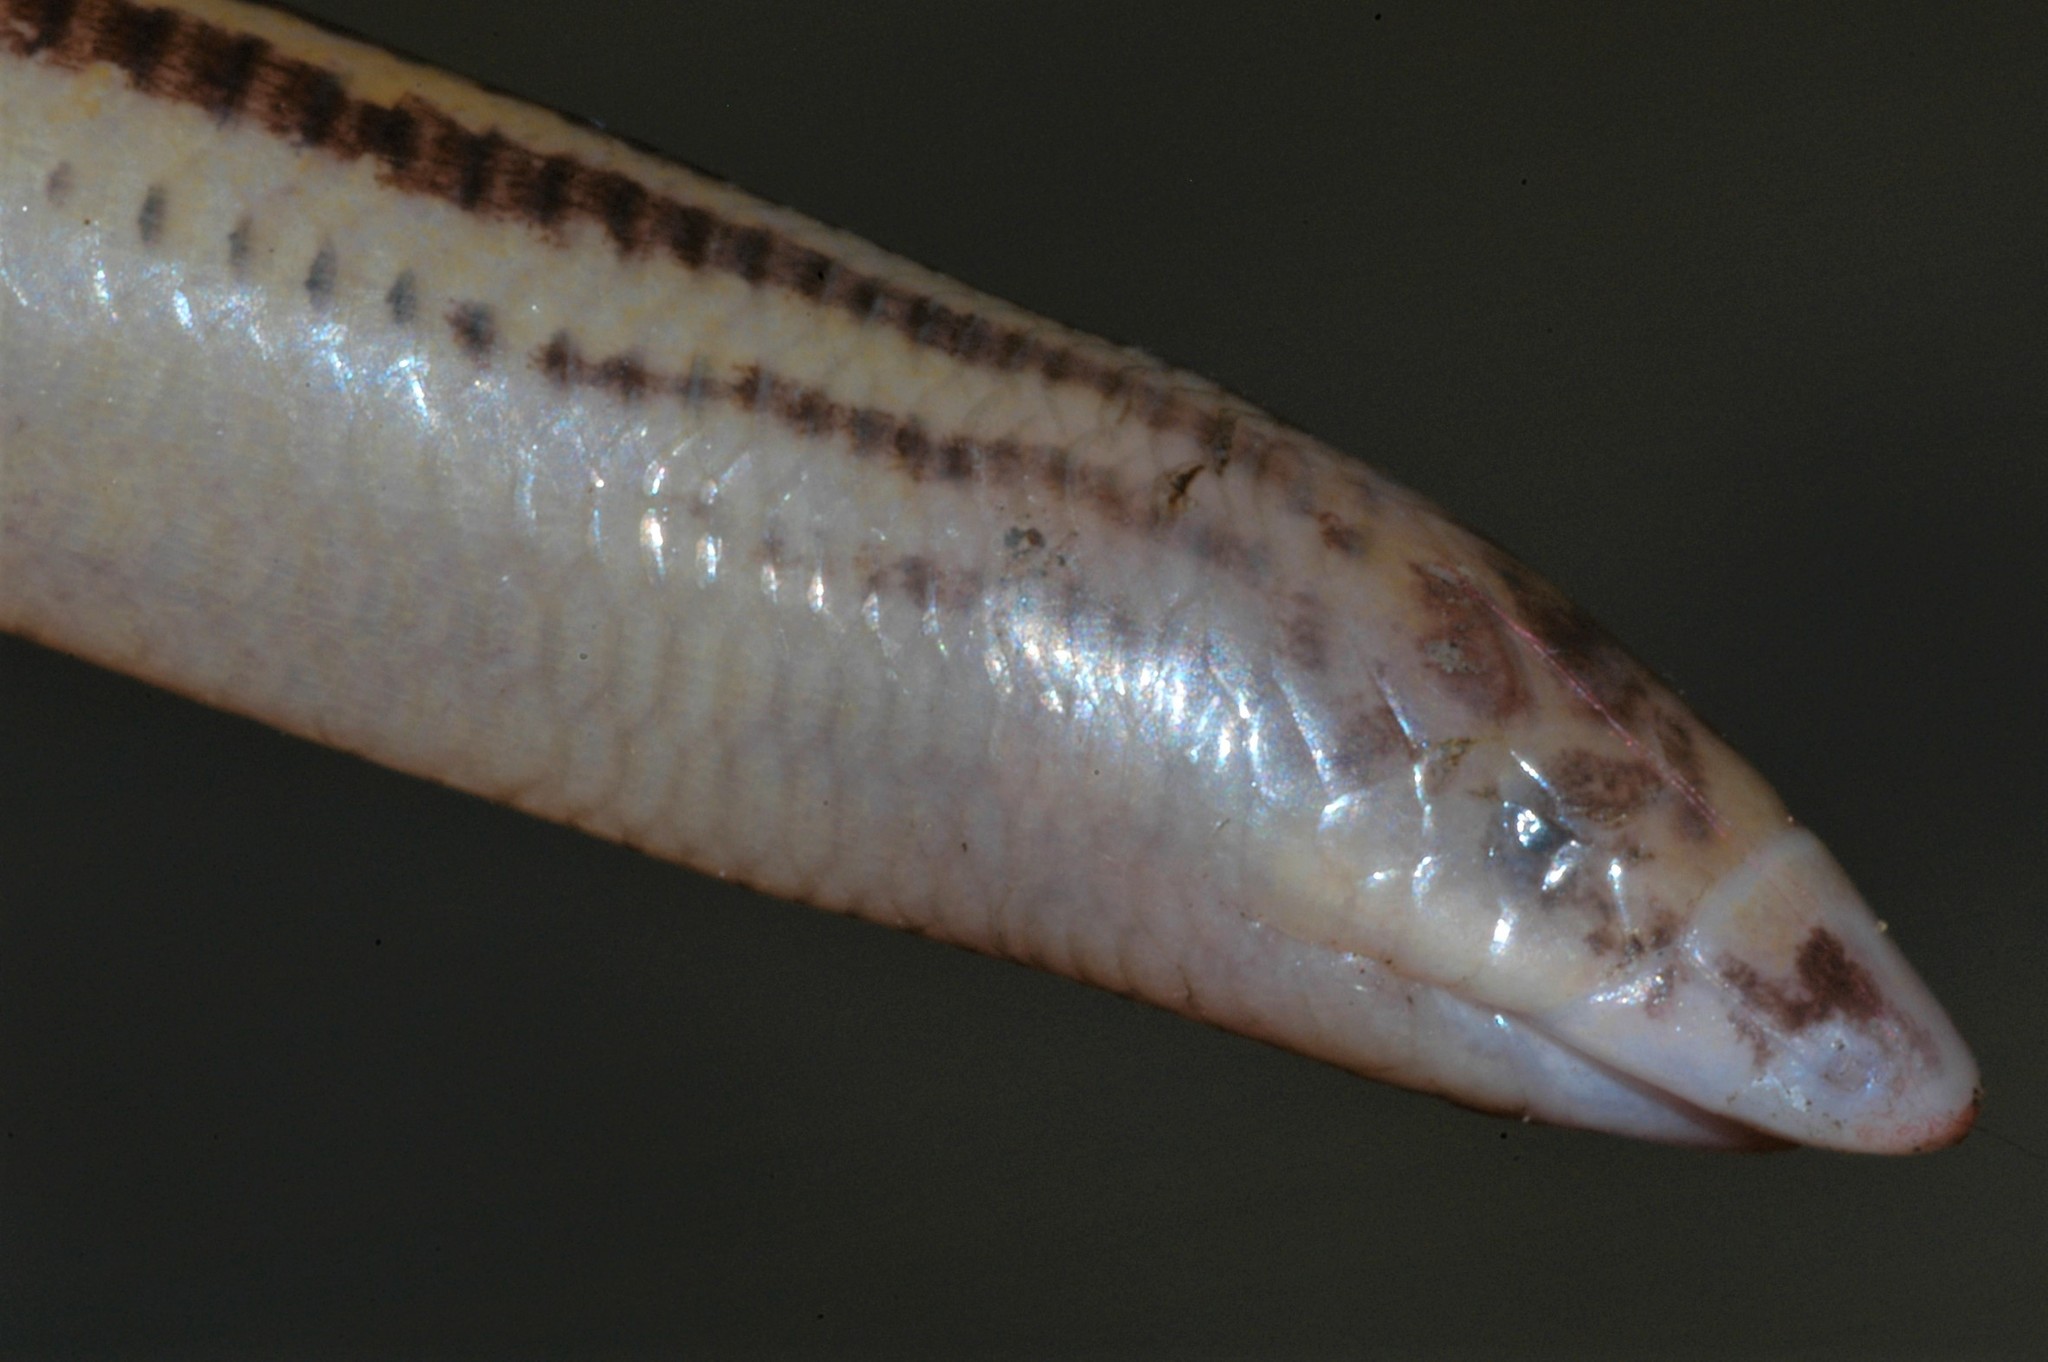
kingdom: Animalia
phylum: Chordata
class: Squamata
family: Scincidae
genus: Acontias
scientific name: Acontias jappi
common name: Japp’s burrowing skink
